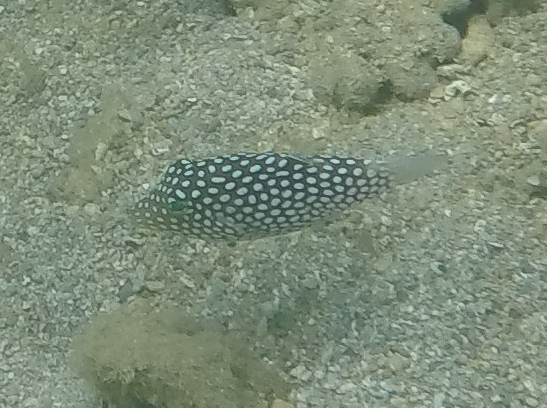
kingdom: Animalia
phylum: Chordata
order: Tetraodontiformes
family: Tetraodontidae
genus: Canthigaster
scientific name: Canthigaster jactator
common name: Hawaiian whitespotted toby
